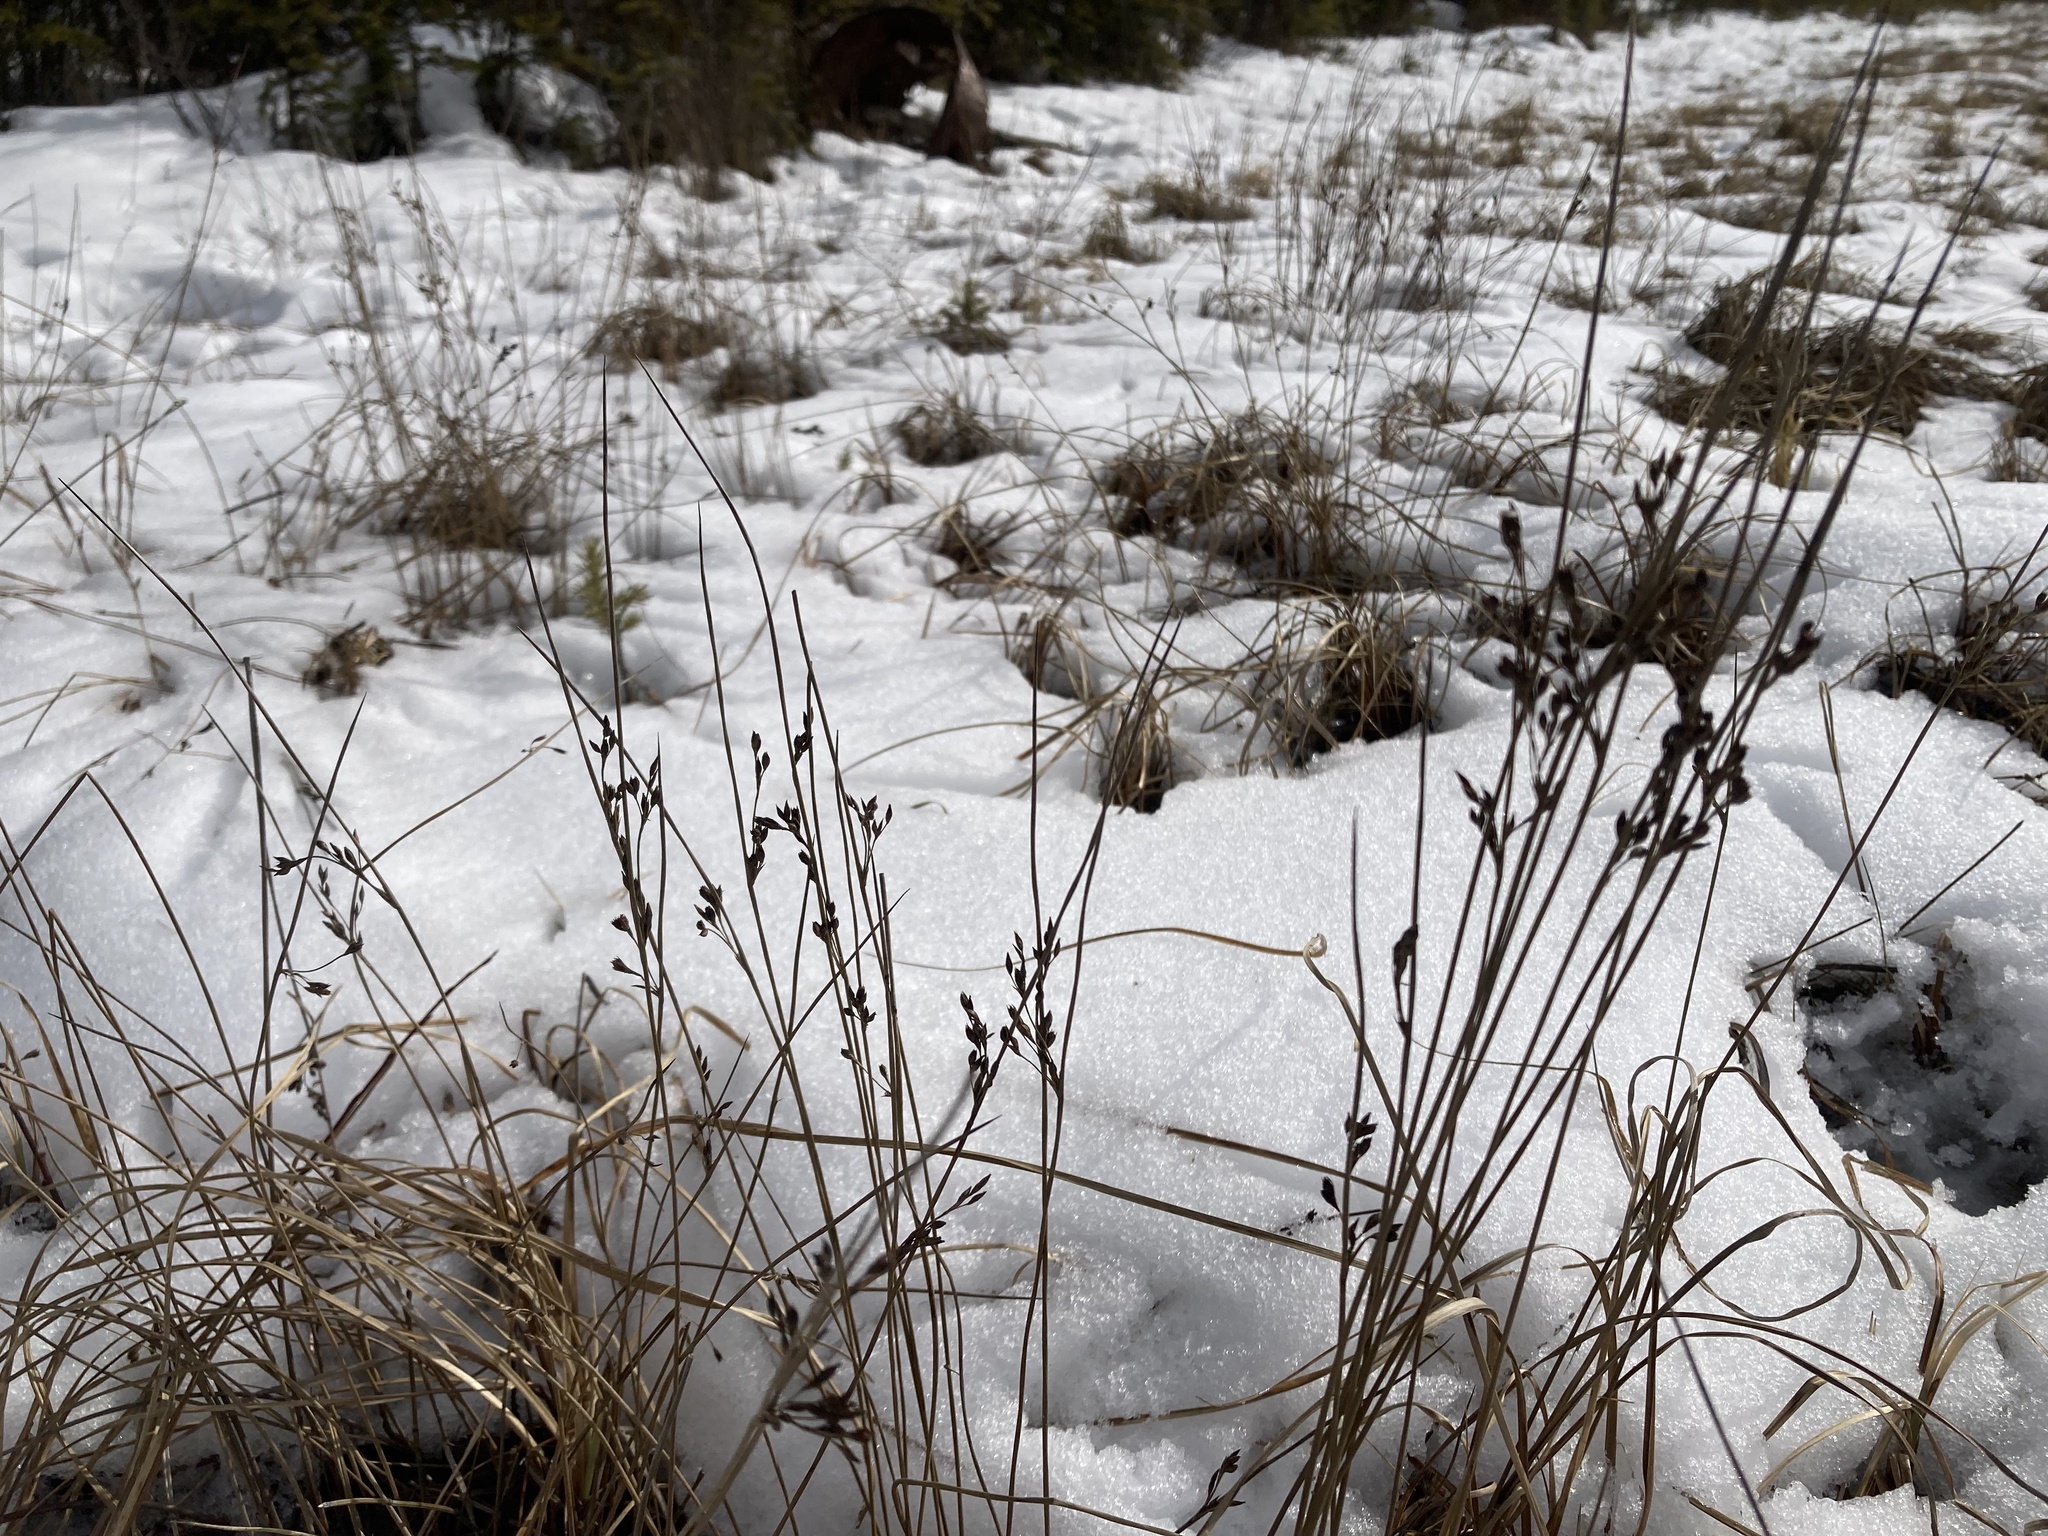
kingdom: Plantae
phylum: Tracheophyta
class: Liliopsida
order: Poales
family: Juncaceae
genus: Juncus
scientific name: Juncus balticus
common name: Baltic rush
